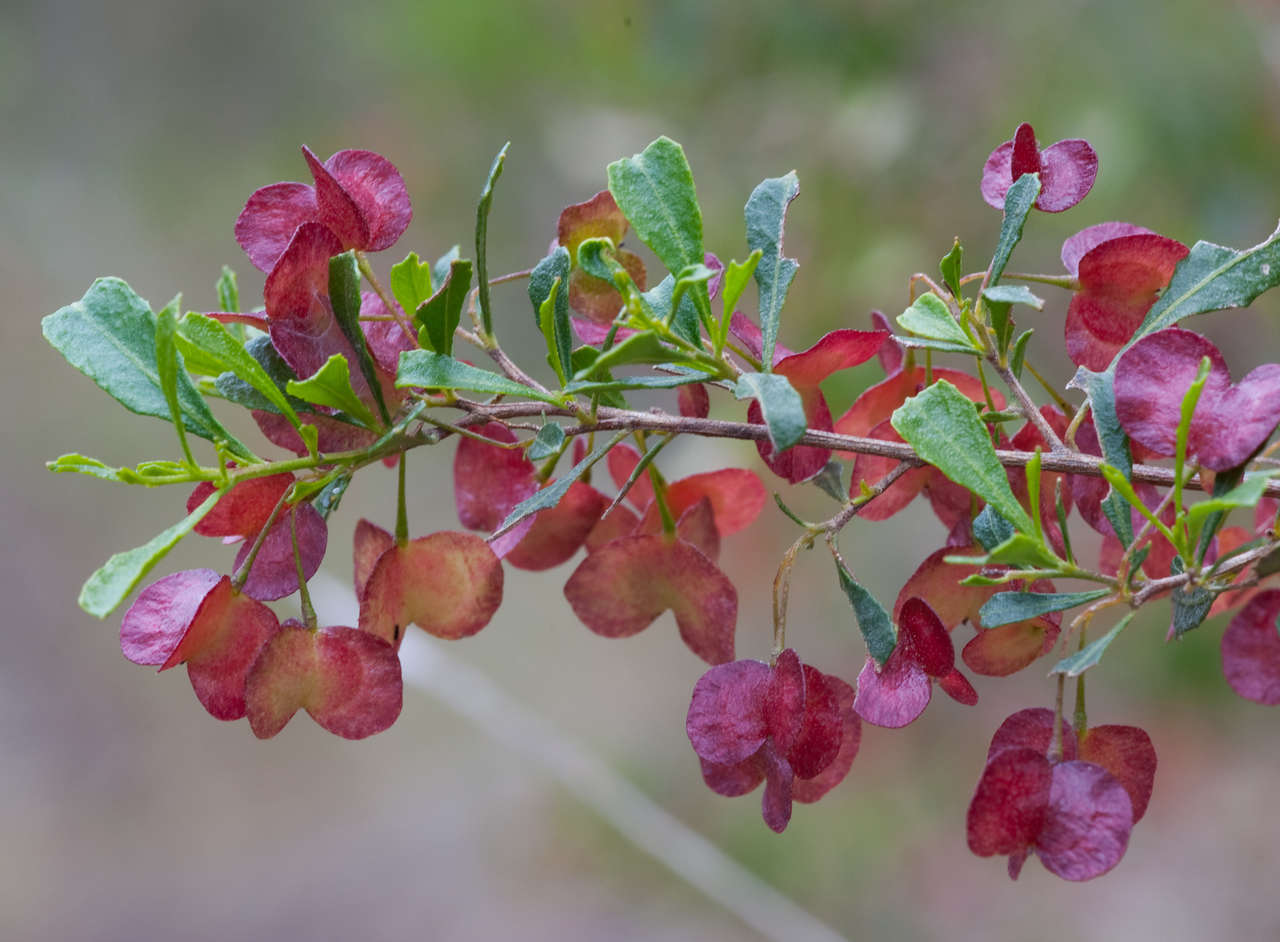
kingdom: Plantae
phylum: Tracheophyta
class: Magnoliopsida
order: Sapindales
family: Sapindaceae
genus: Dodonaea
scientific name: Dodonaea viscosa
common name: Hopbush
